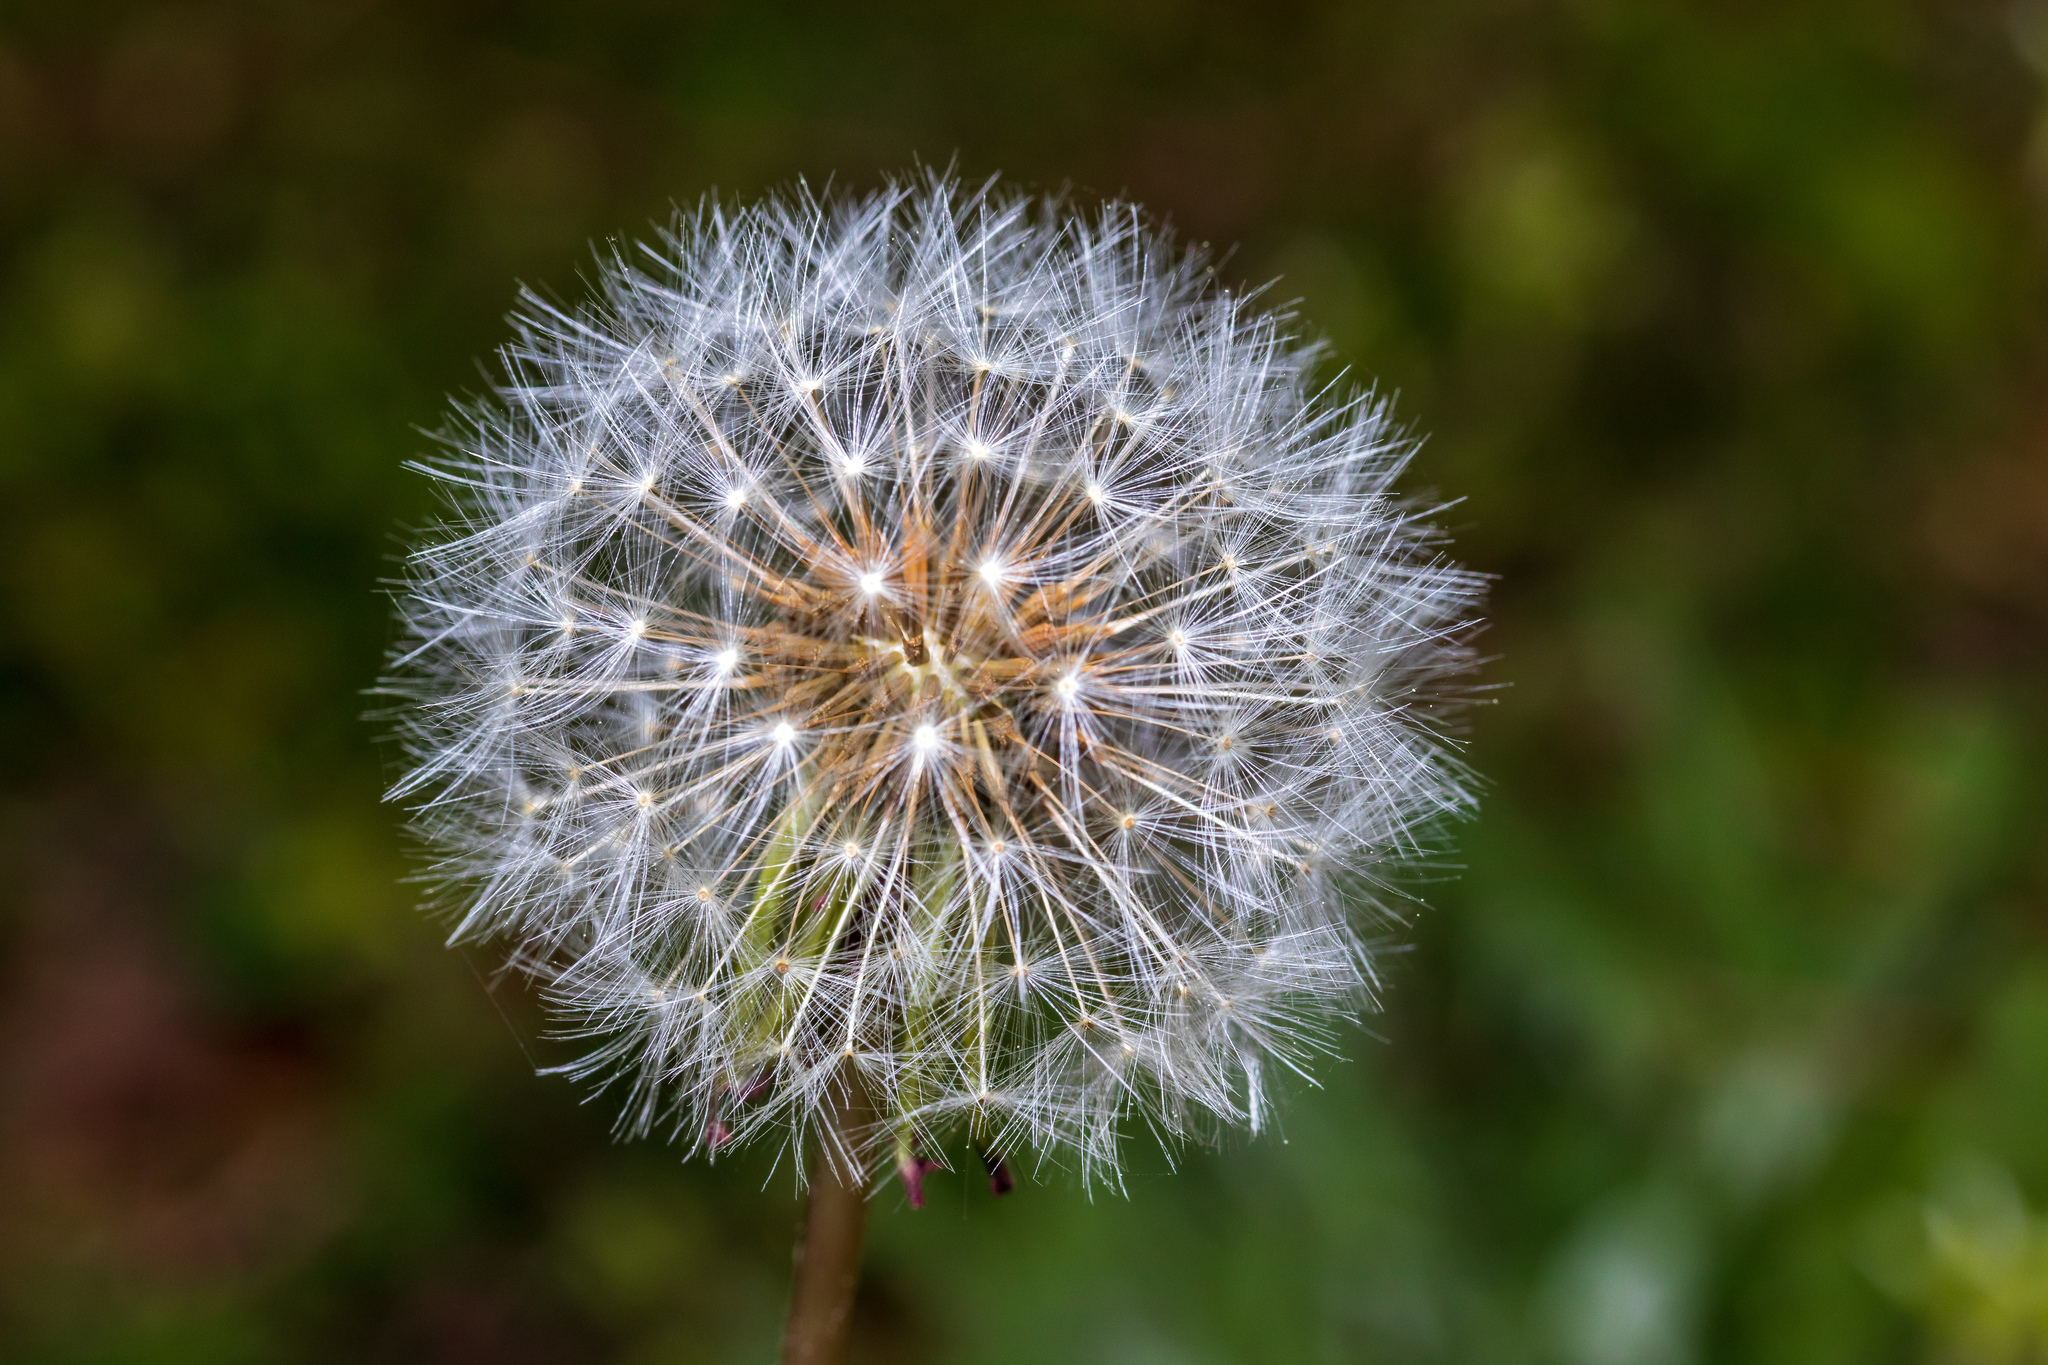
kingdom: Plantae
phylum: Tracheophyta
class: Magnoliopsida
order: Asterales
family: Asteraceae
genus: Taraxacum
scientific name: Taraxacum officinale
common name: Common dandelion
